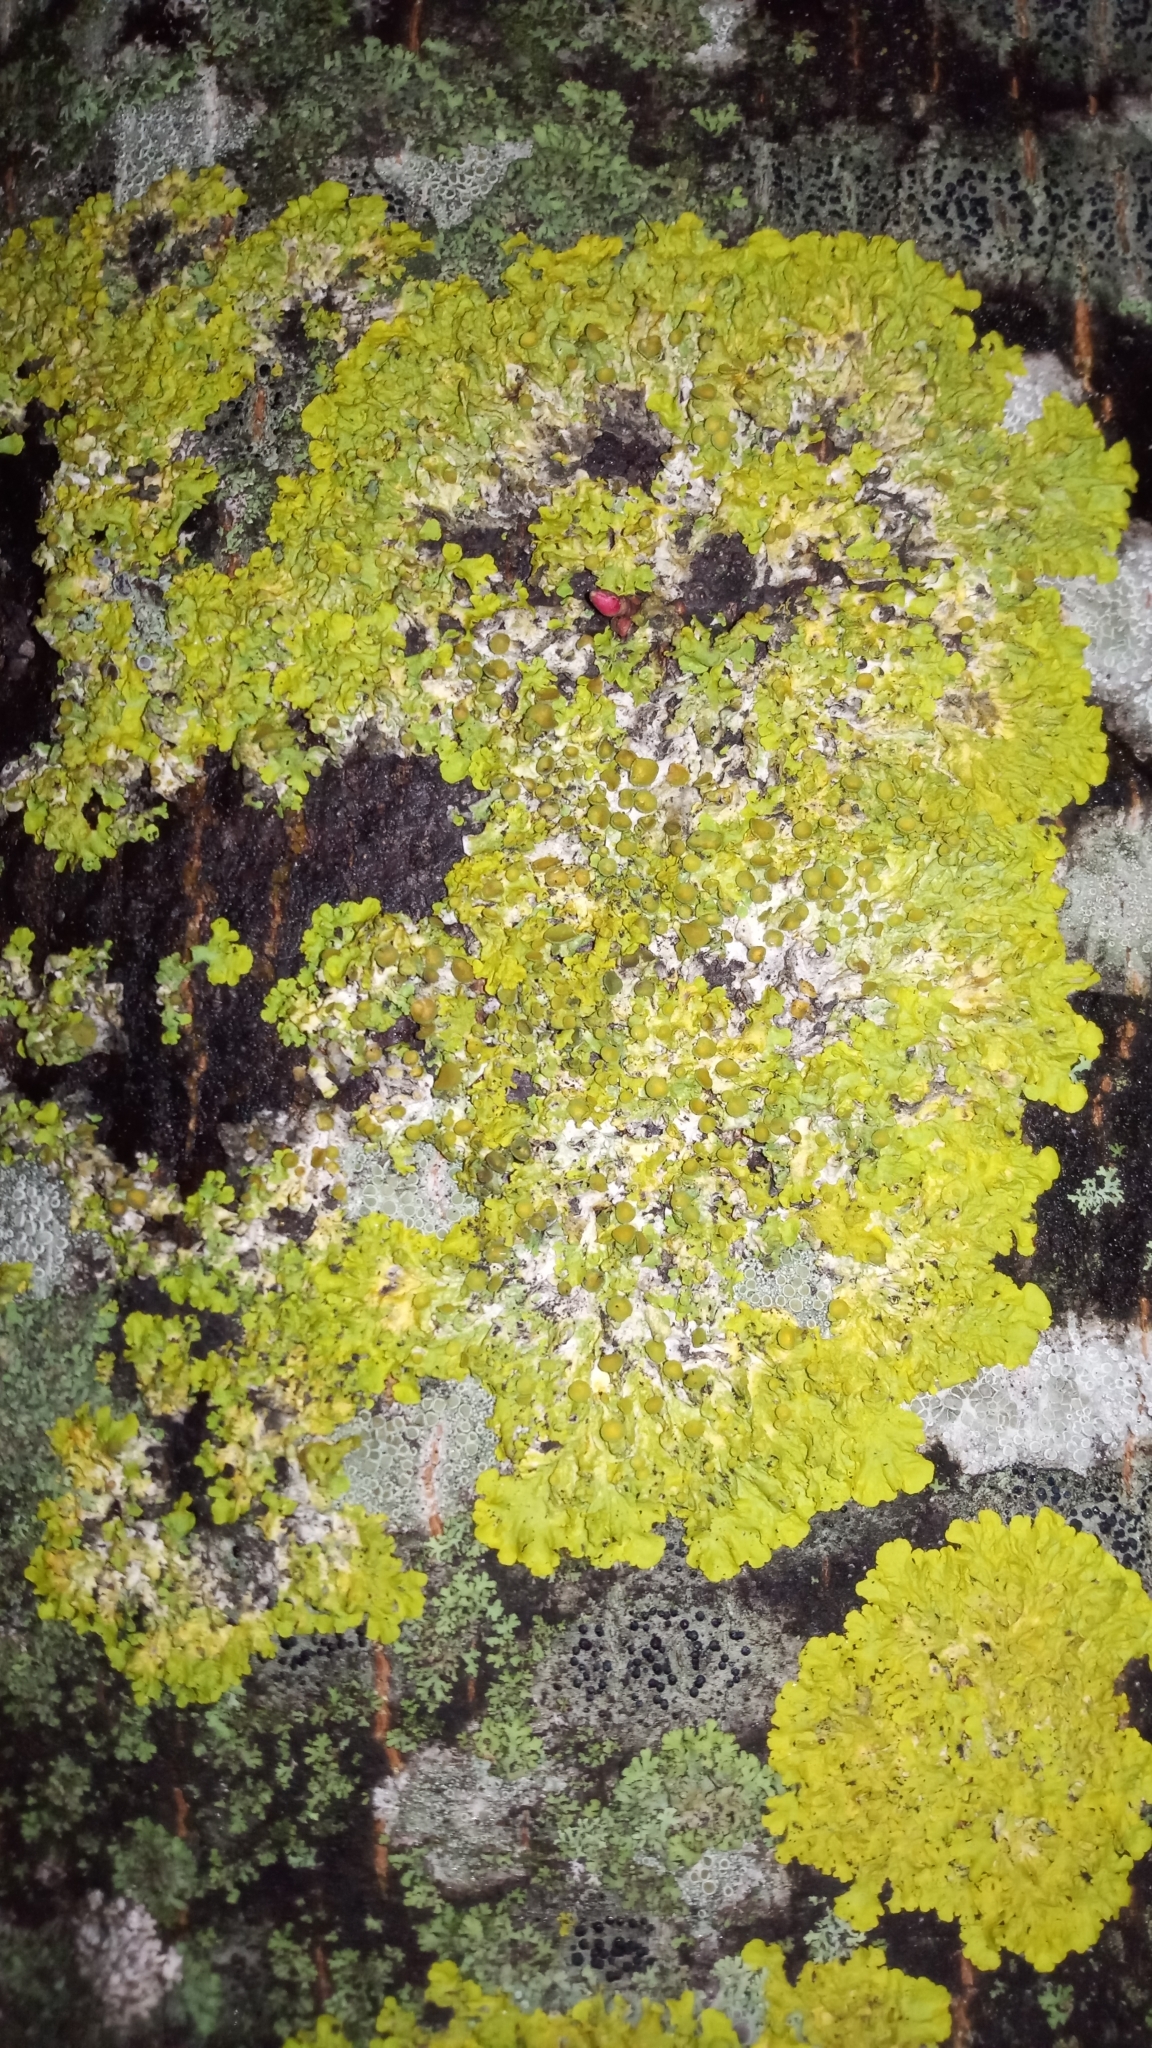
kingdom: Fungi
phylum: Ascomycota
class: Lecanoromycetes
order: Teloschistales
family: Teloschistaceae
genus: Xanthoria
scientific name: Xanthoria parietina
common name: Common orange lichen
